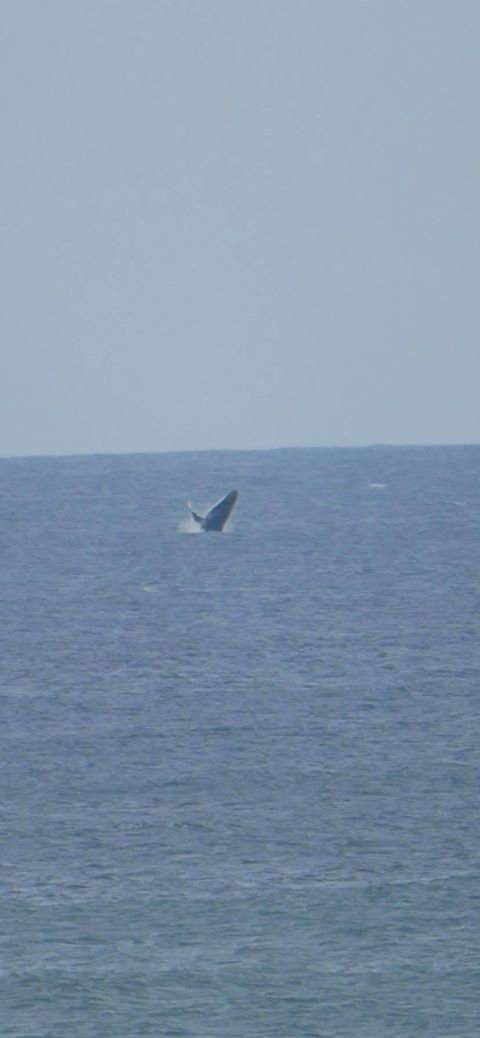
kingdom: Animalia
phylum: Chordata
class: Mammalia
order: Cetacea
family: Balaenopteridae
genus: Megaptera
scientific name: Megaptera novaeangliae
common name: Humpback whale
